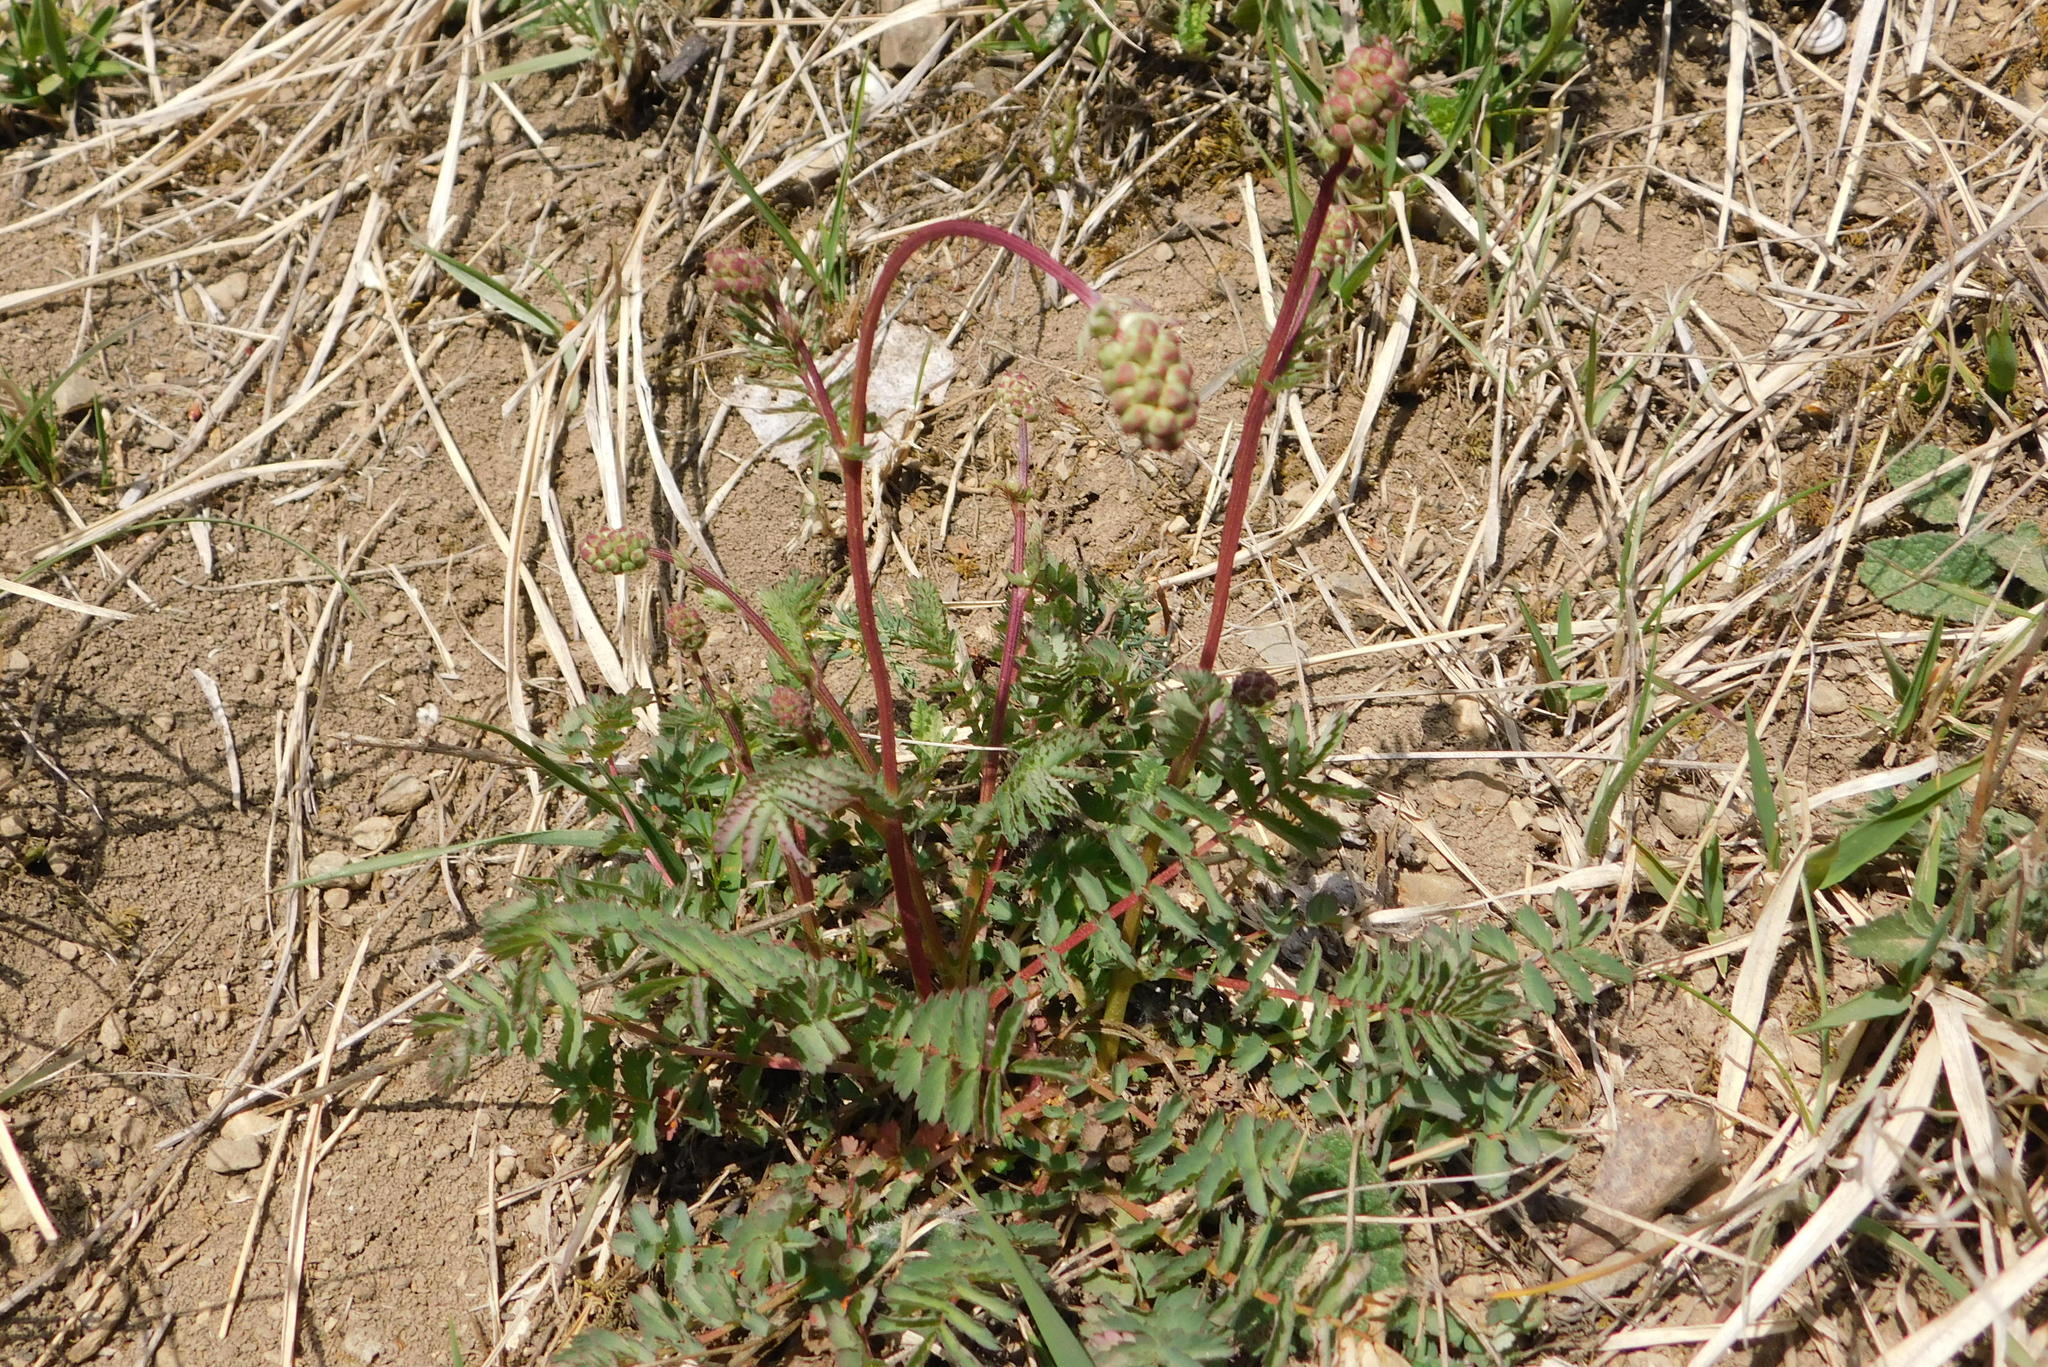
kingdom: Plantae
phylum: Tracheophyta
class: Magnoliopsida
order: Rosales
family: Rosaceae
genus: Poterium
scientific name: Poterium sanguisorba
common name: Salad burnet
